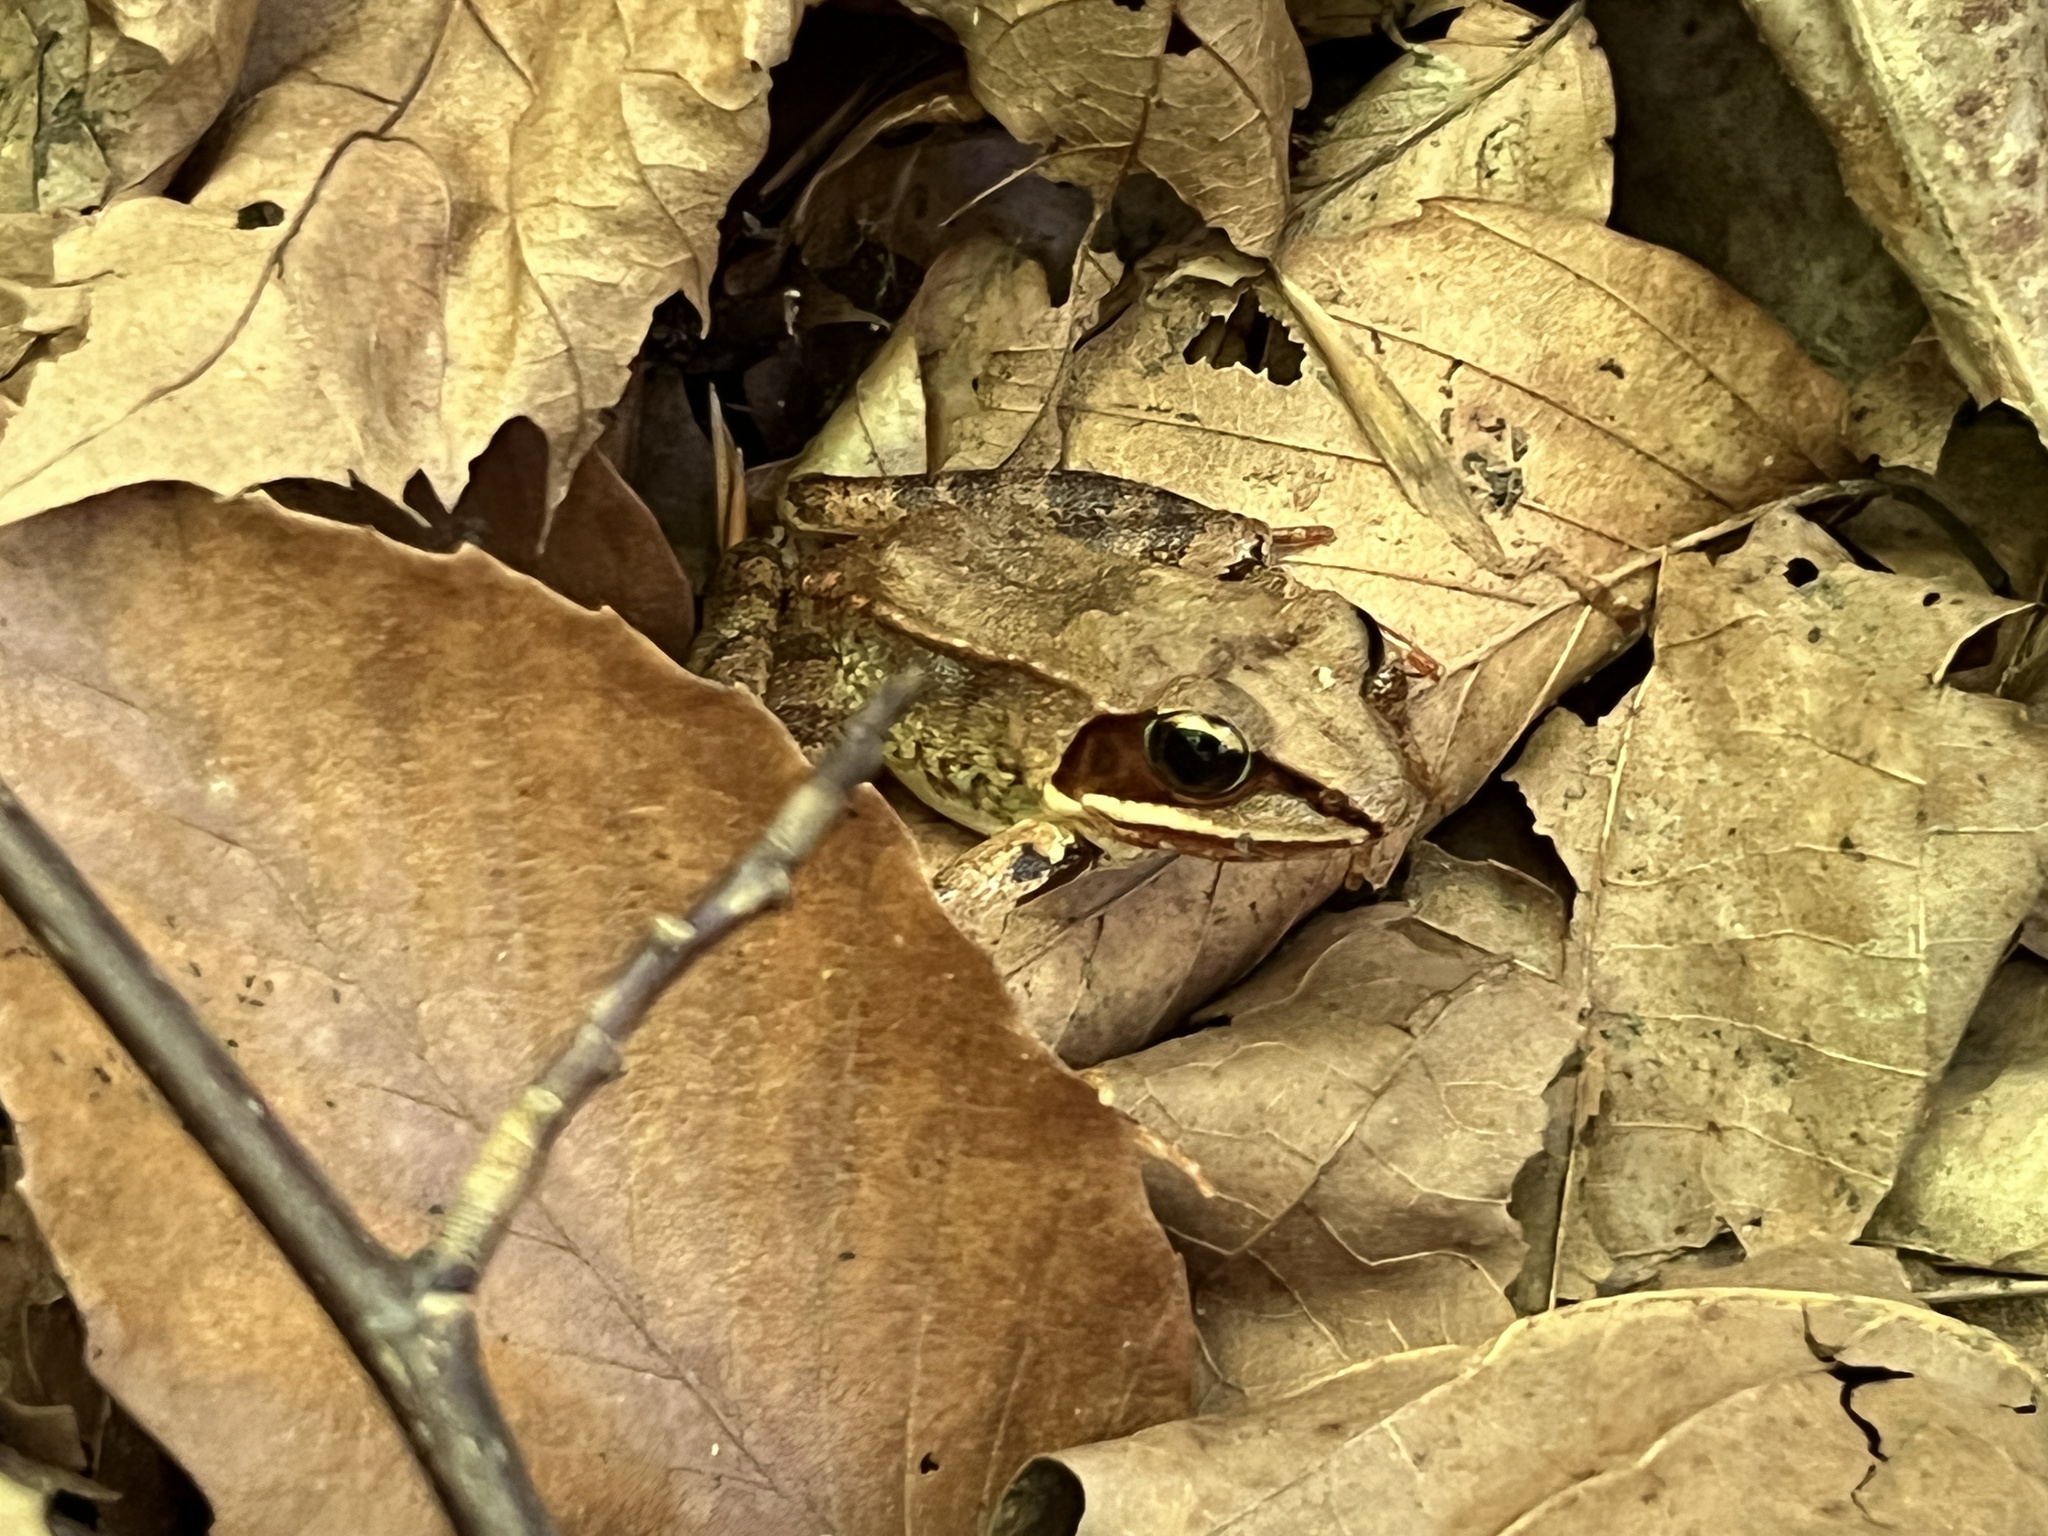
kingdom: Animalia
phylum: Chordata
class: Amphibia
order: Anura
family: Ranidae
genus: Lithobates
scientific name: Lithobates sylvaticus
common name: Wood frog
